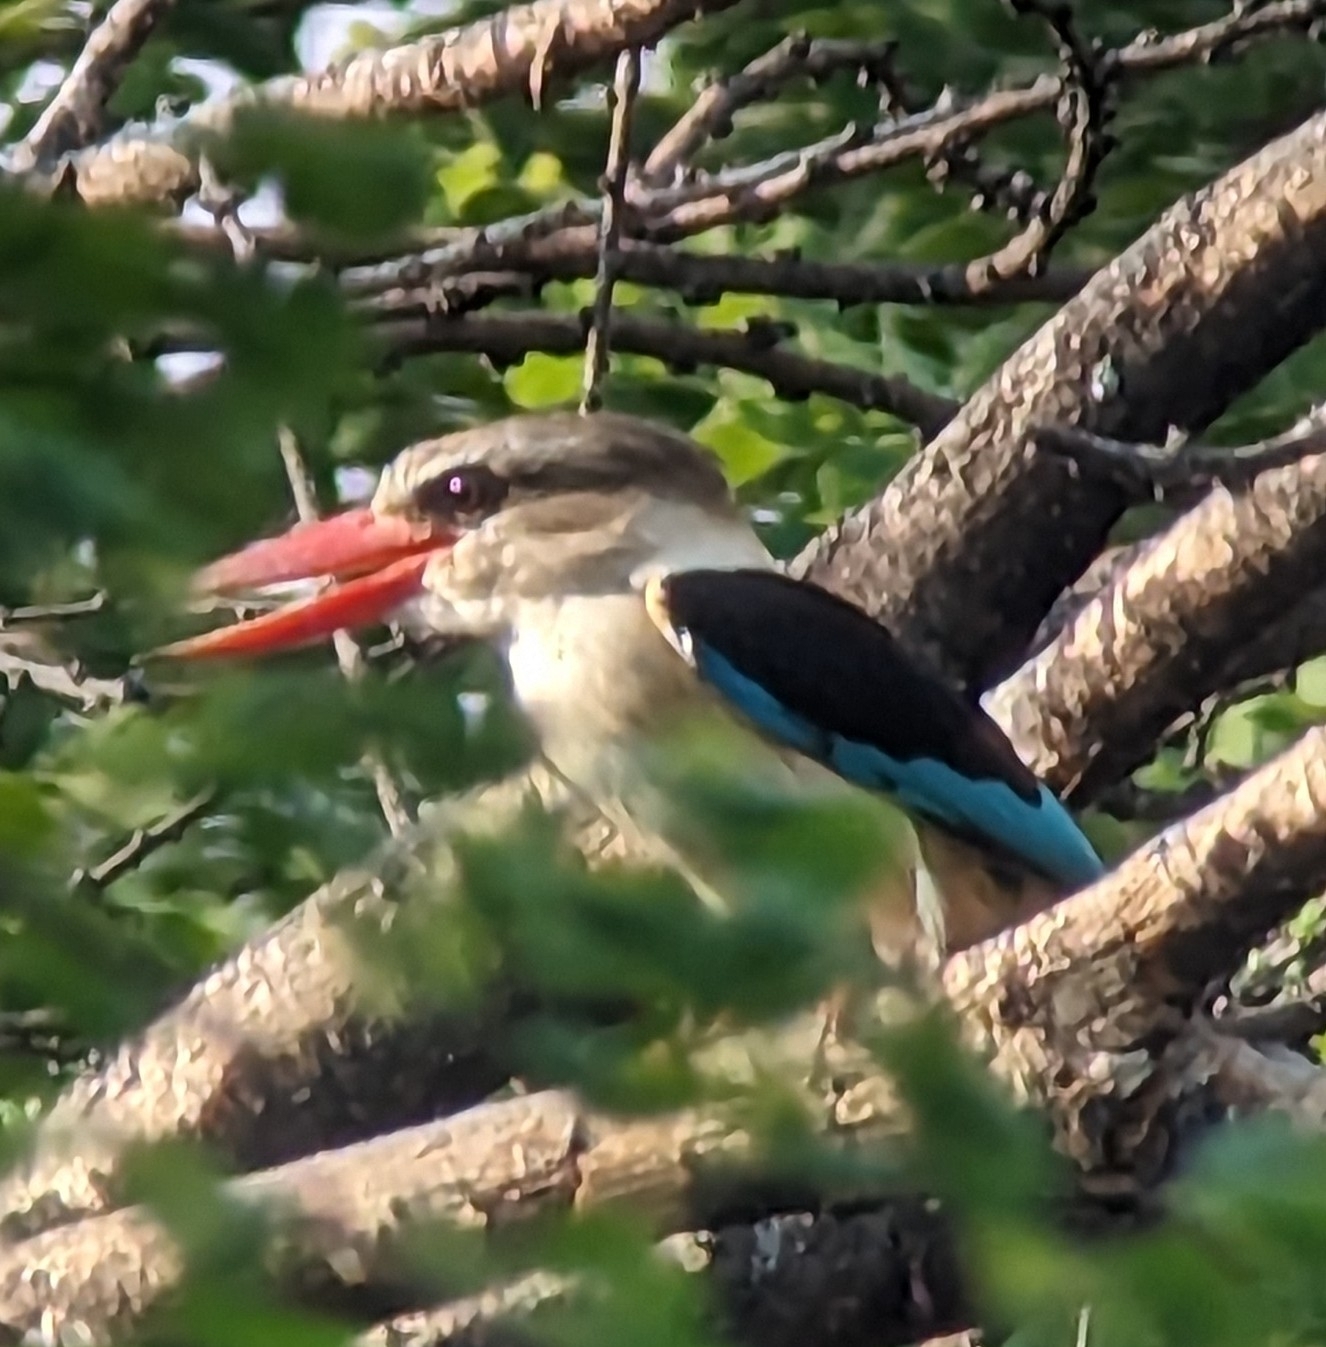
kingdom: Animalia
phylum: Chordata
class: Aves
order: Coraciiformes
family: Alcedinidae
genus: Halcyon
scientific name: Halcyon albiventris
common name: Brown-hooded kingfisher
